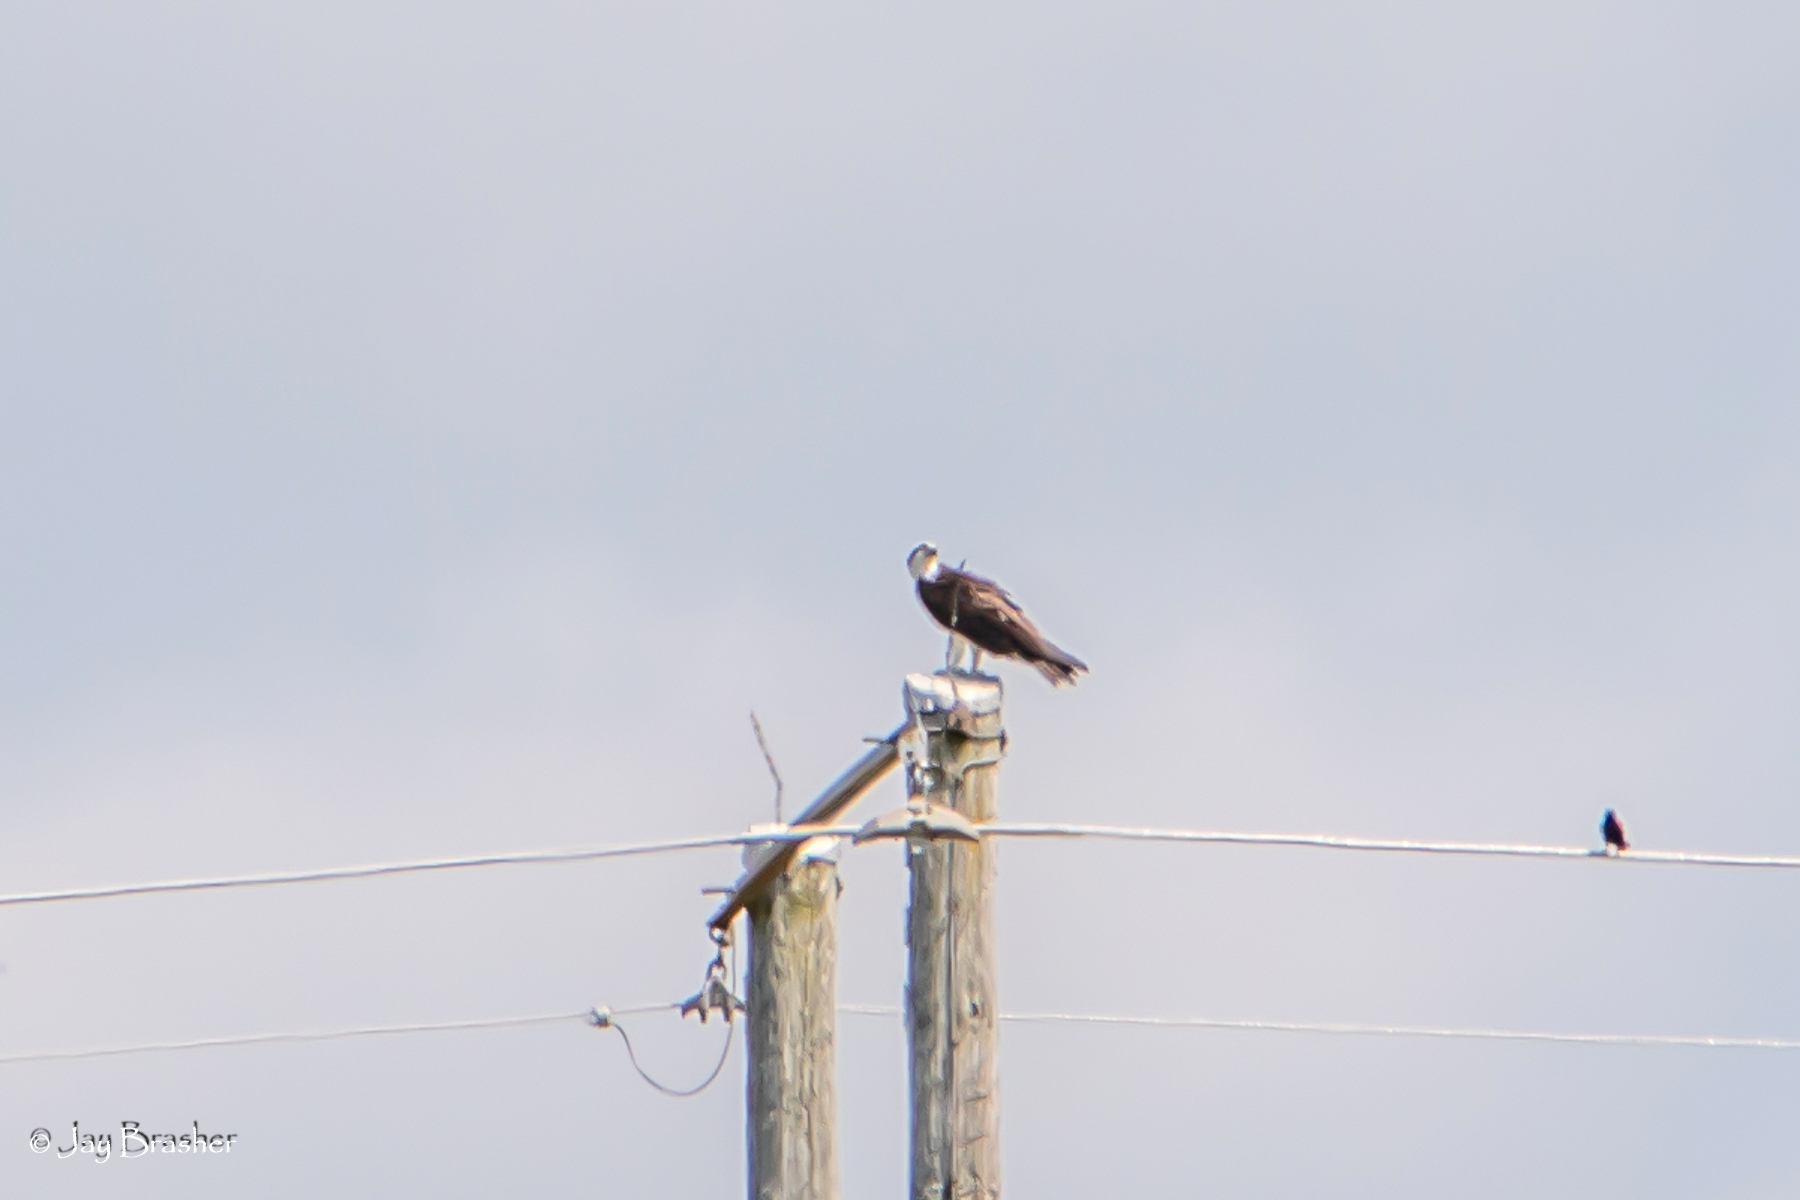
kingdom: Animalia
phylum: Chordata
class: Aves
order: Accipitriformes
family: Pandionidae
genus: Pandion
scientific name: Pandion haliaetus
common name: Osprey
